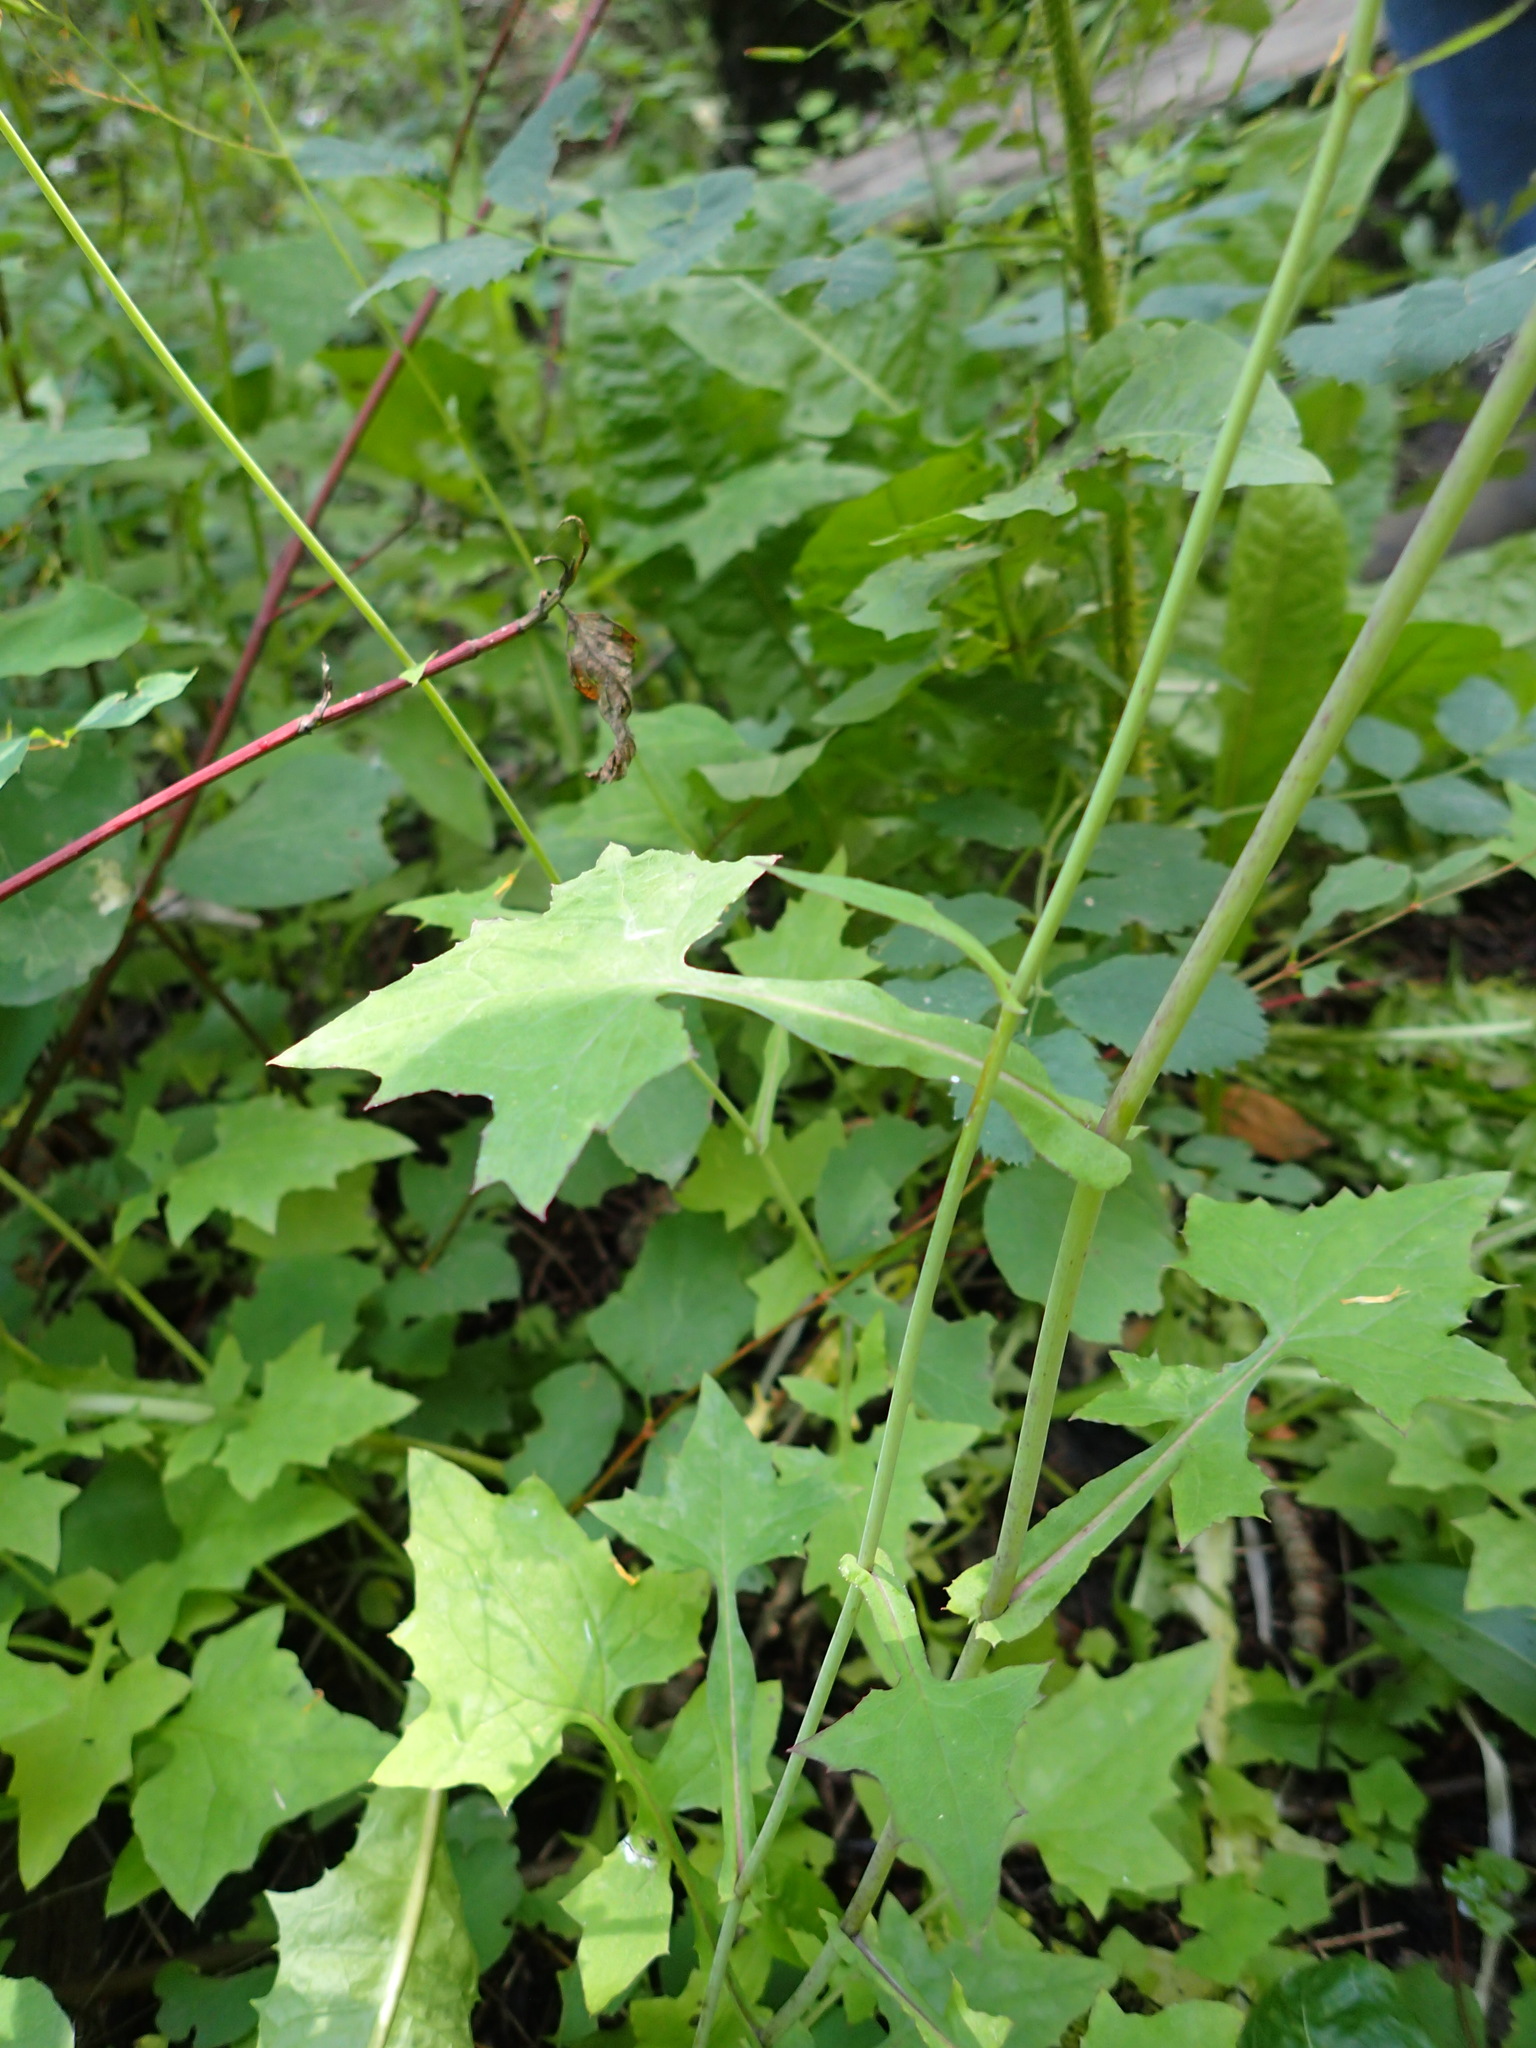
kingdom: Plantae
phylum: Tracheophyta
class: Magnoliopsida
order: Asterales
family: Asteraceae
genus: Mycelis
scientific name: Mycelis muralis
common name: Wall lettuce
